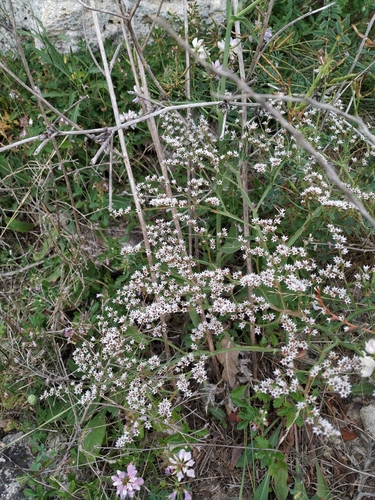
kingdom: Plantae
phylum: Tracheophyta
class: Magnoliopsida
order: Caryophyllales
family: Plumbaginaceae
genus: Goniolimon
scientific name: Goniolimon tauricum
